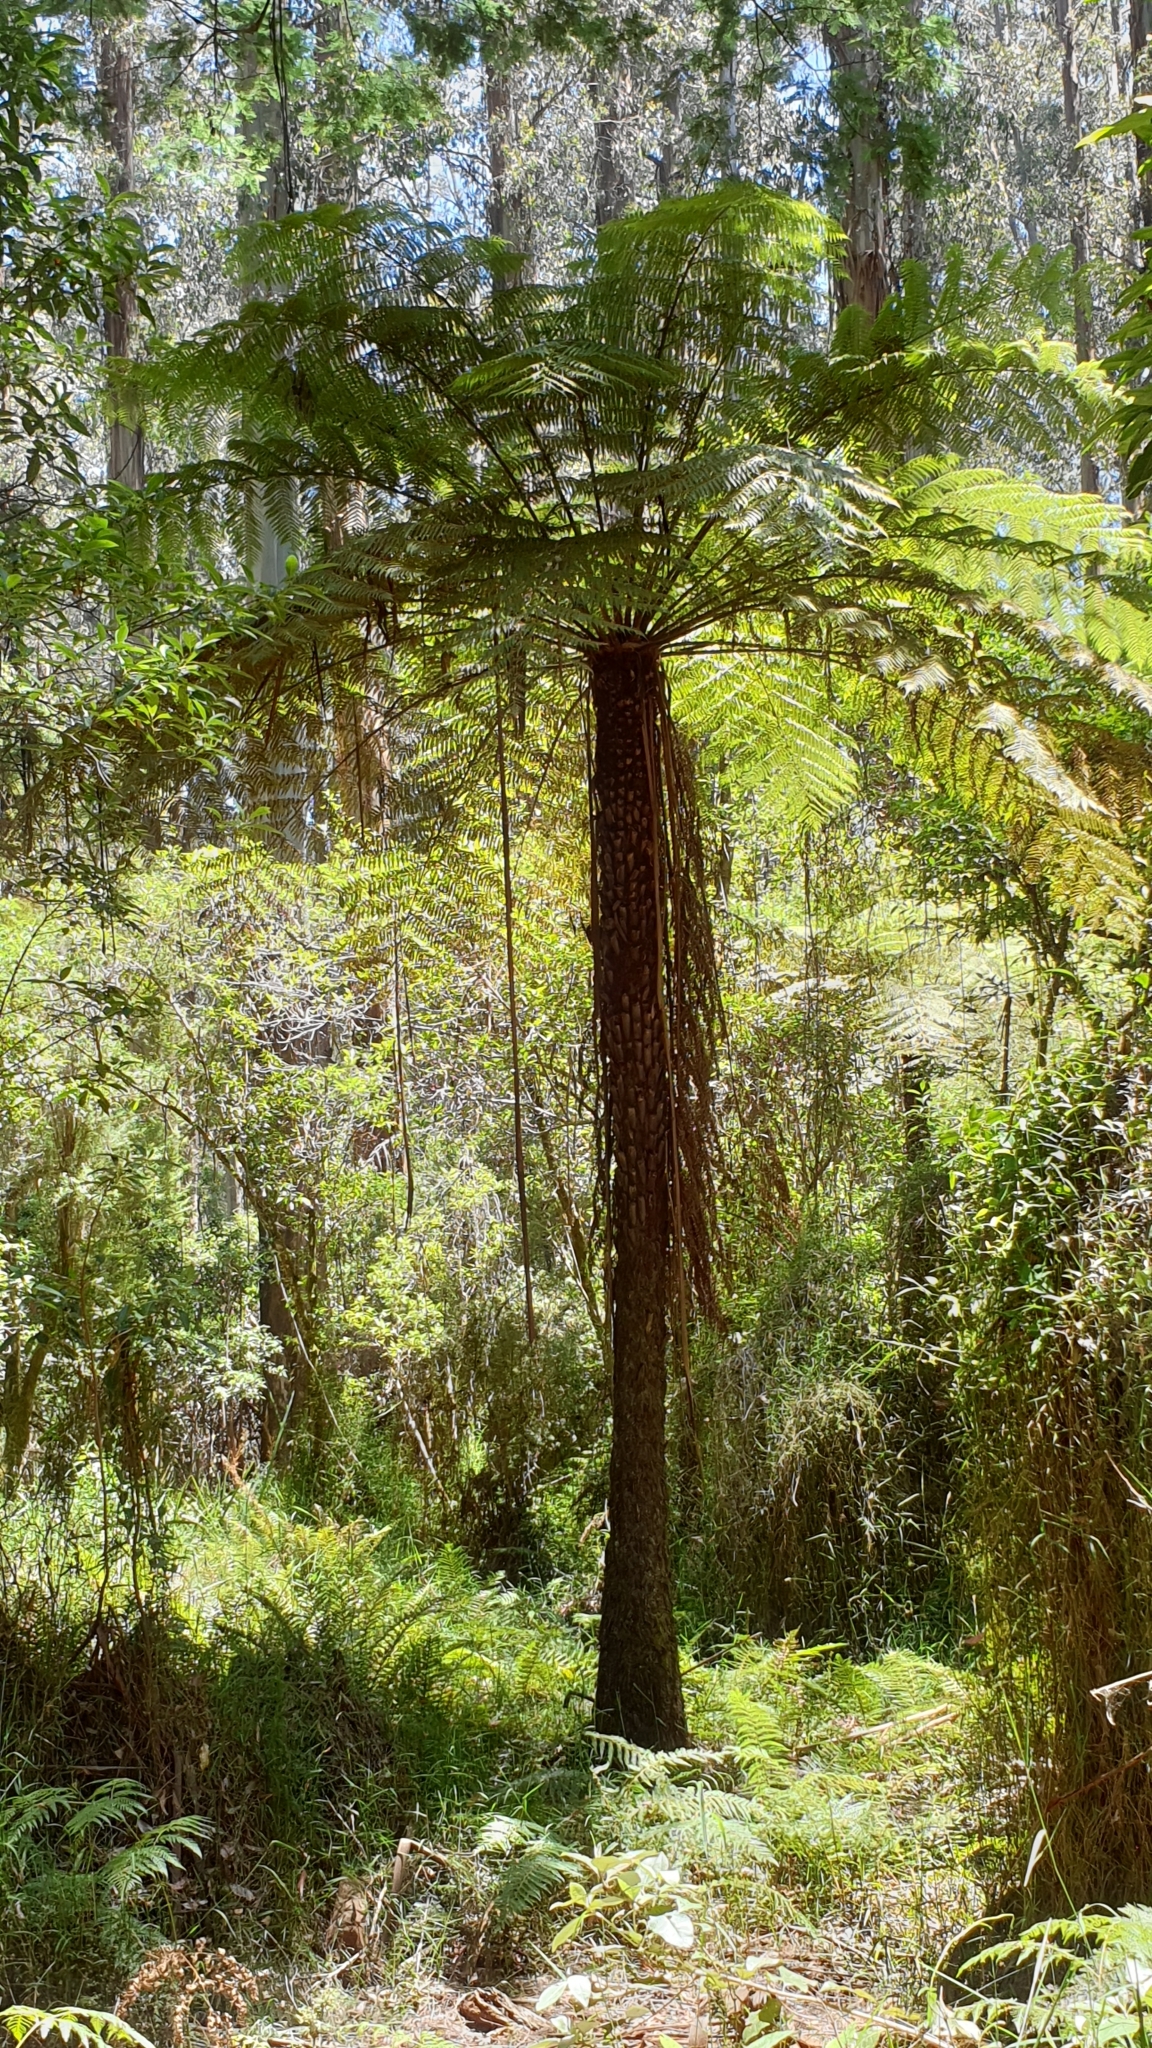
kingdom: Plantae
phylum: Tracheophyta
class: Polypodiopsida
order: Cyatheales
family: Cyatheaceae
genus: Alsophila
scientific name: Alsophila australis
